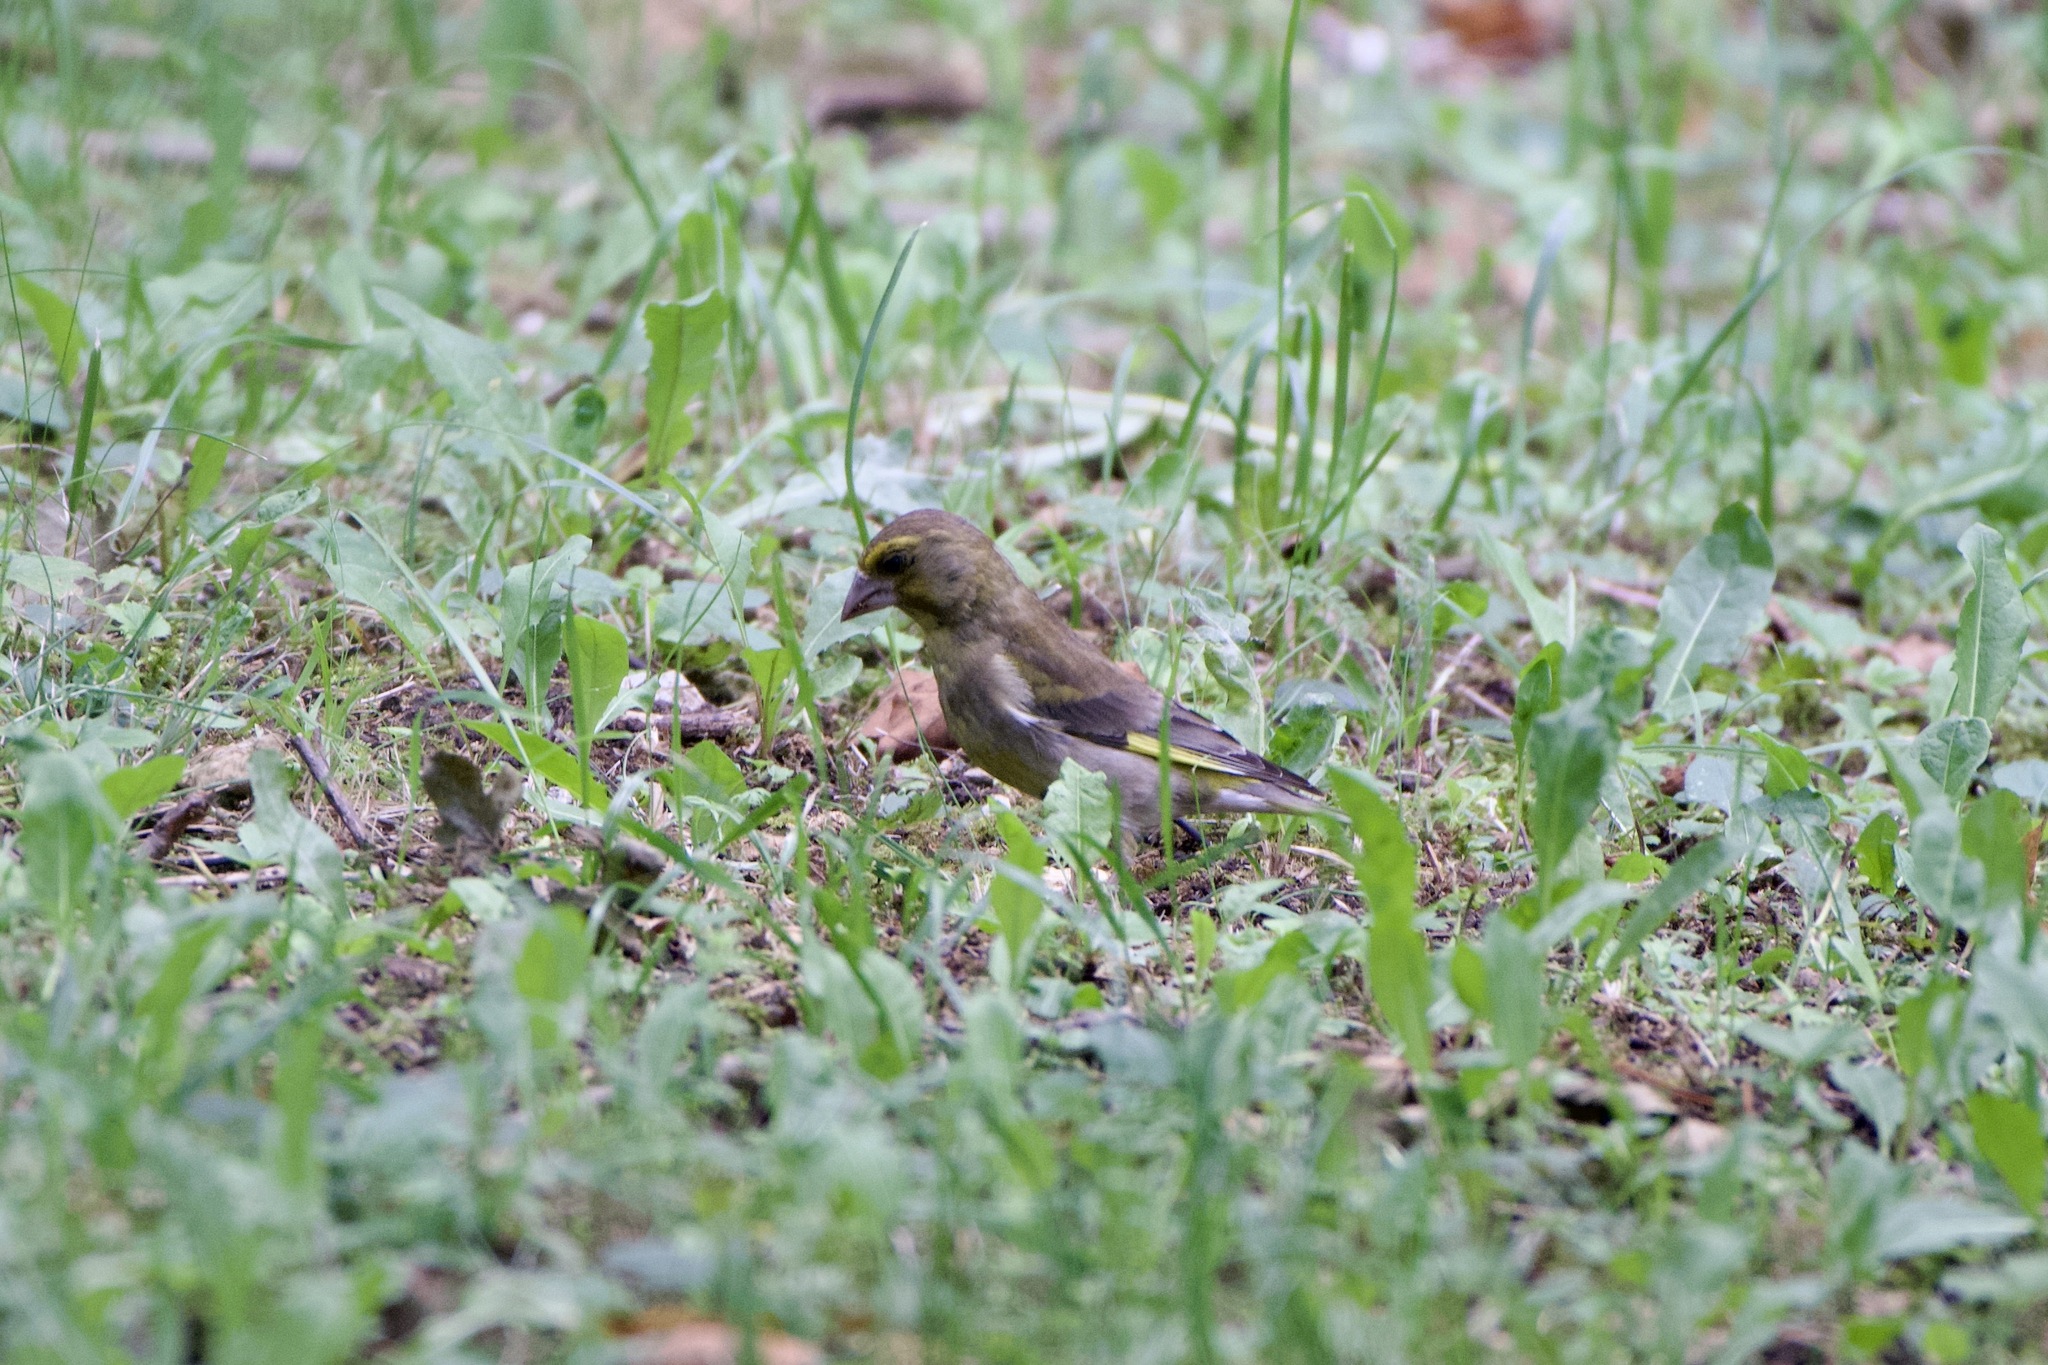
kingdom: Plantae
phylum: Tracheophyta
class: Liliopsida
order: Poales
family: Poaceae
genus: Chloris
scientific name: Chloris chloris
